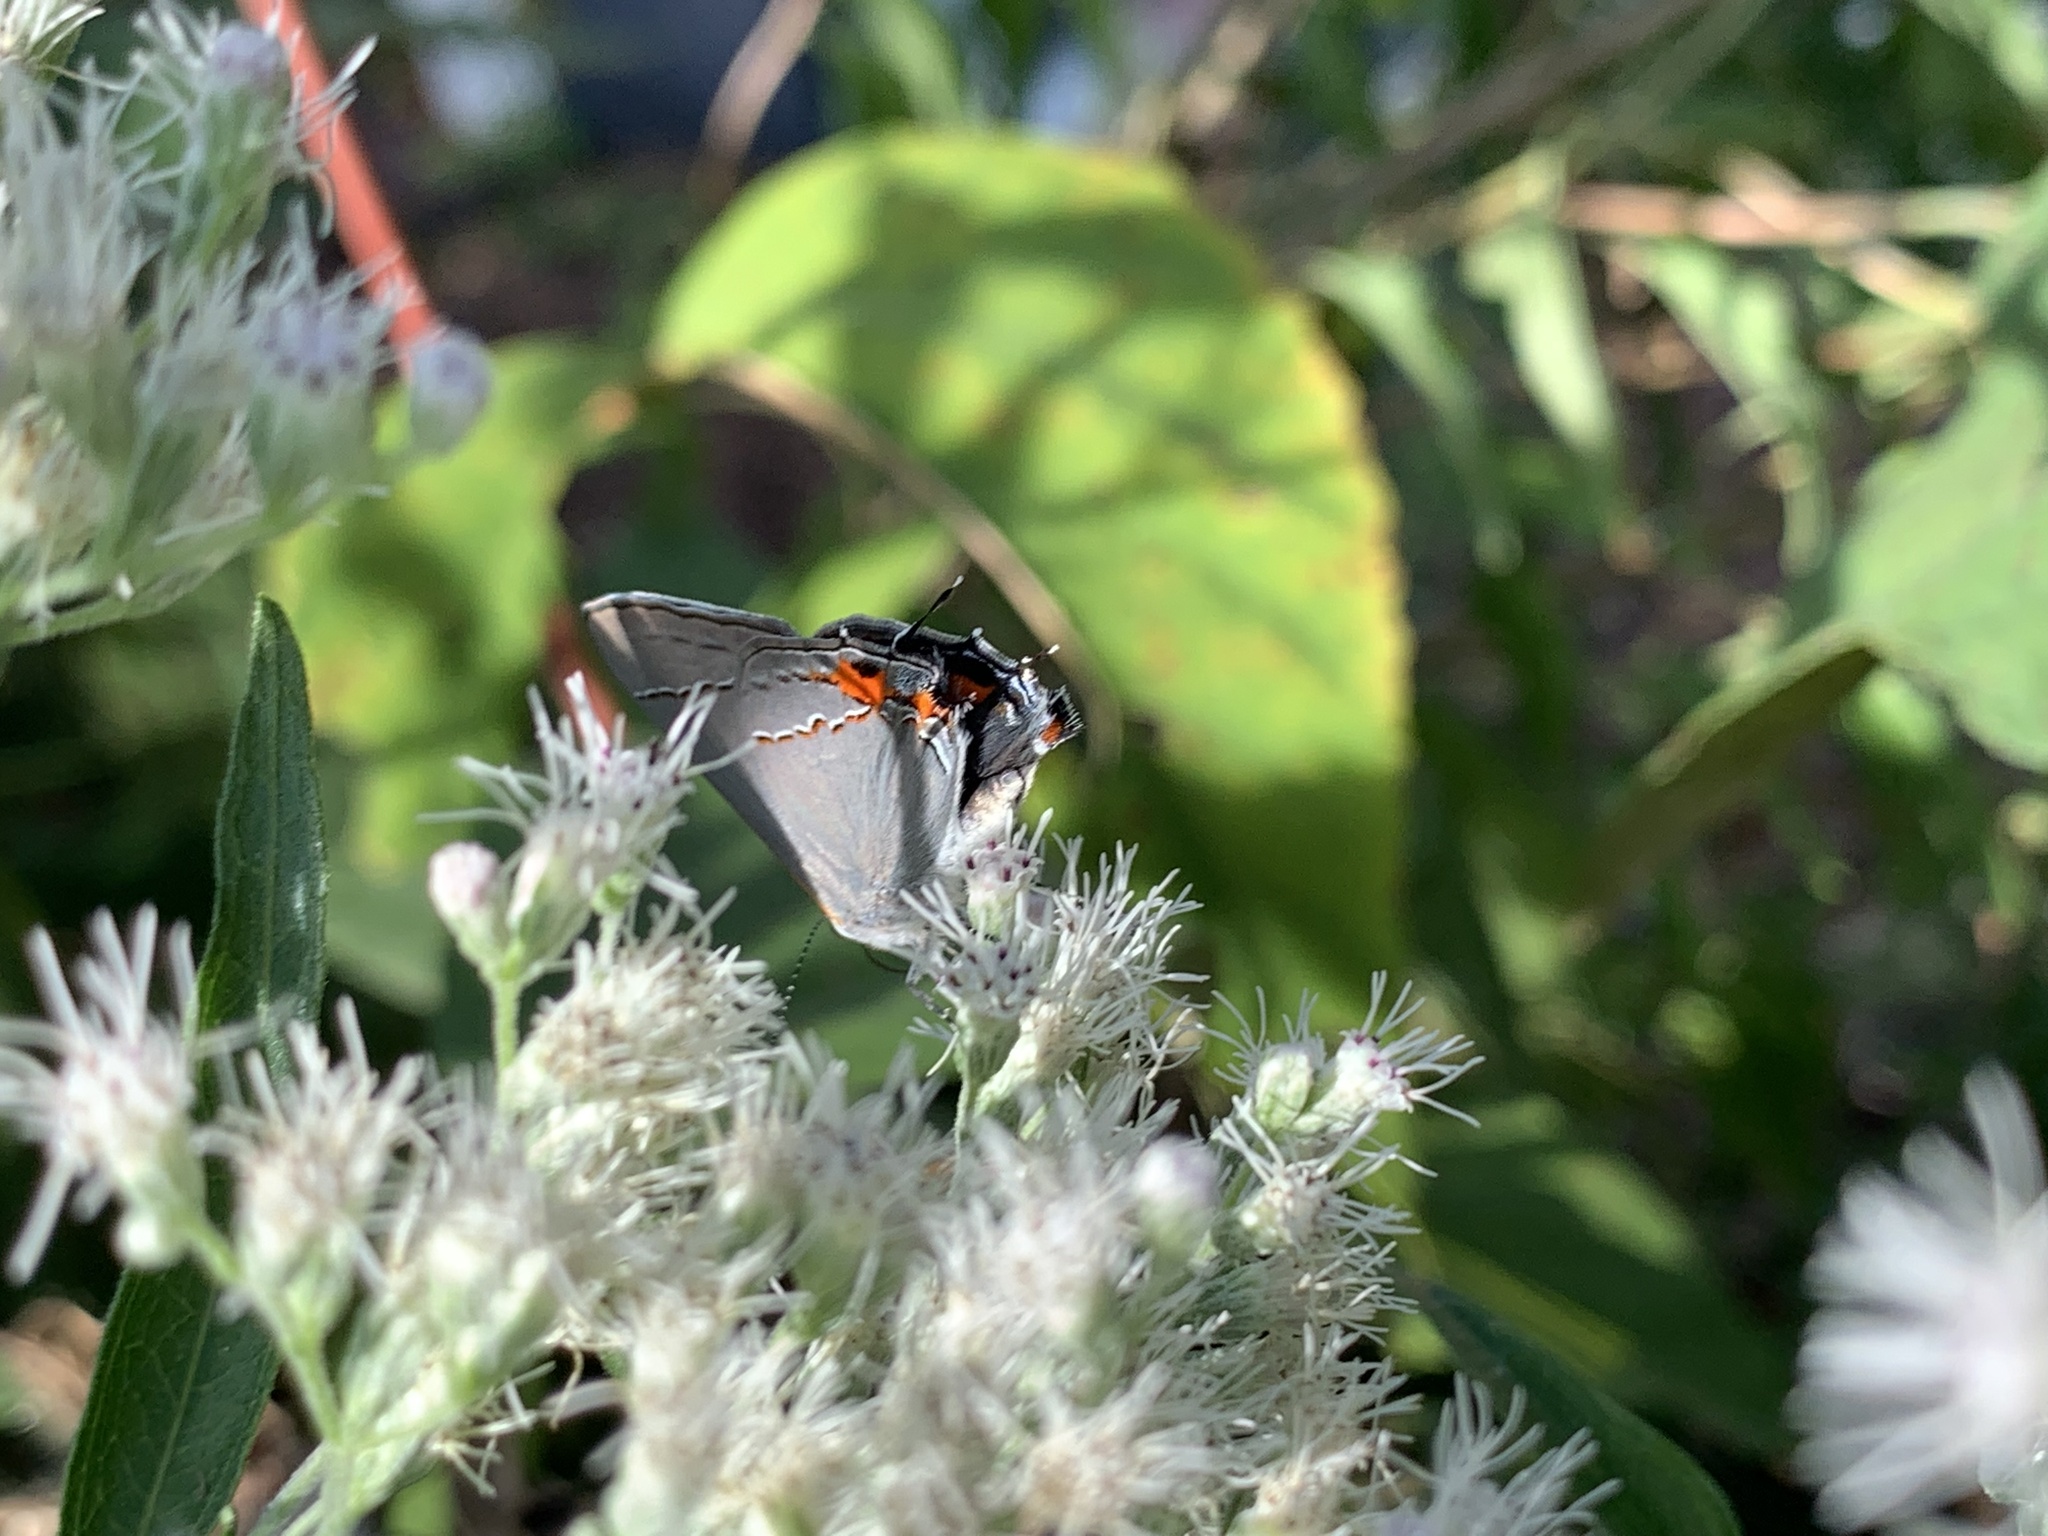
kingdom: Animalia
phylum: Arthropoda
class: Insecta
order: Lepidoptera
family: Lycaenidae
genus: Strymon
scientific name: Strymon melinus
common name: Gray hairstreak
